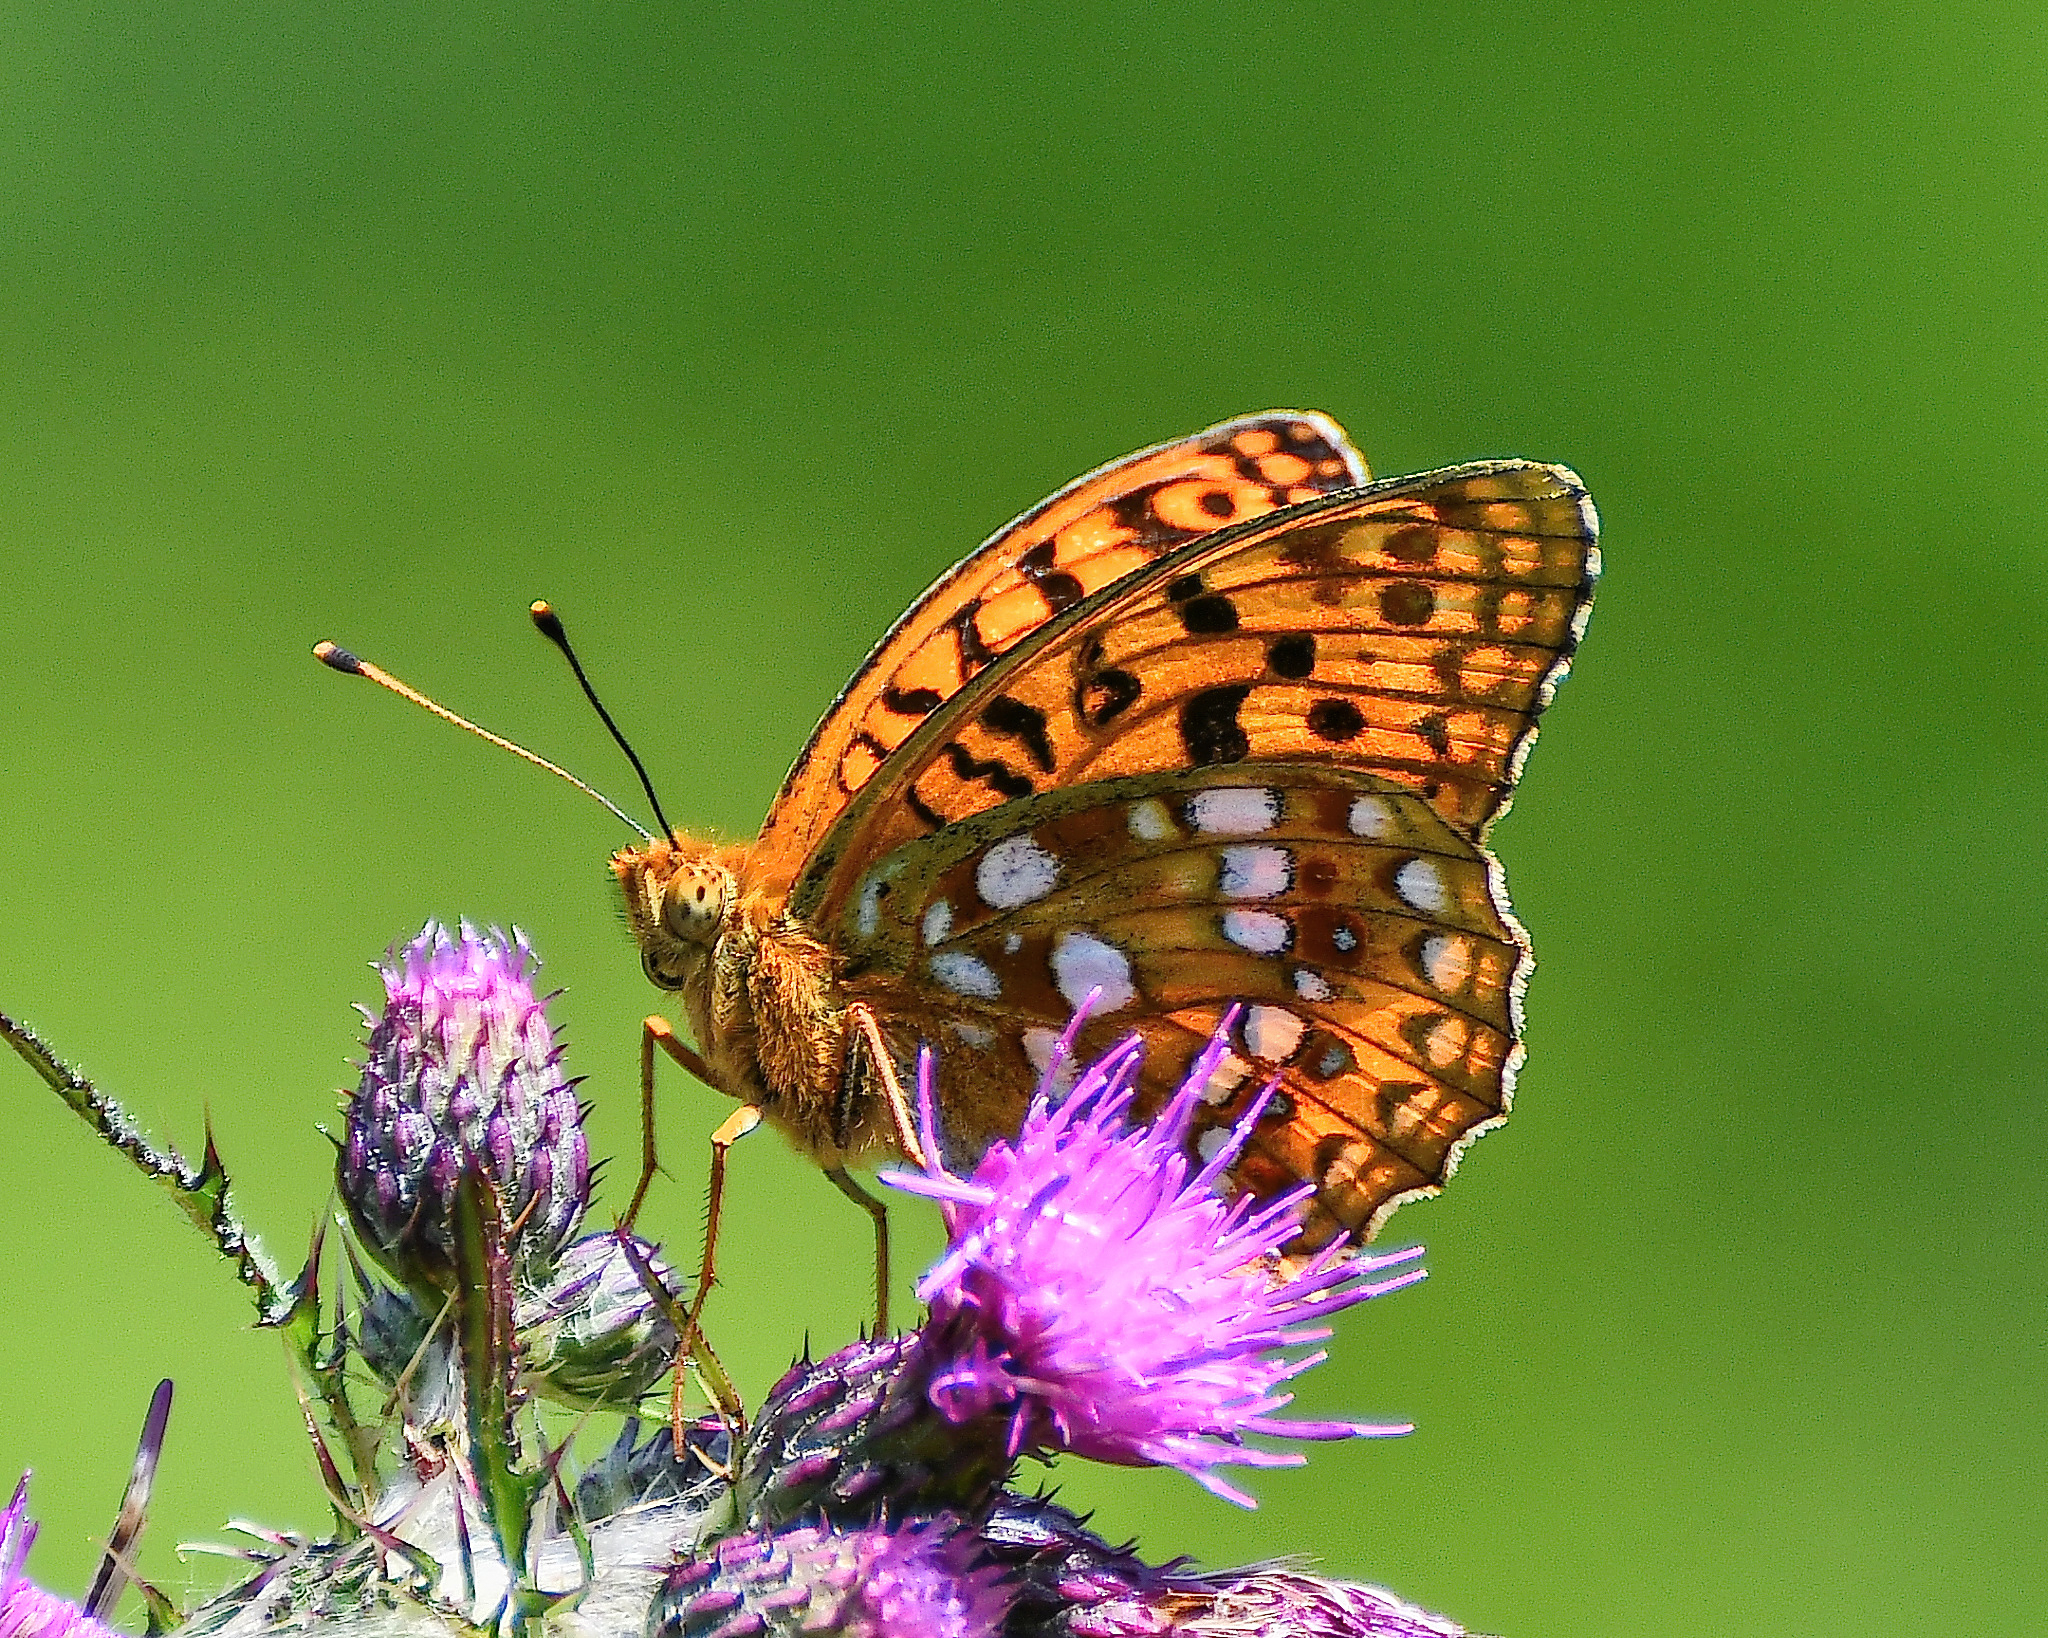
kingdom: Animalia
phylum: Arthropoda
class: Insecta
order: Lepidoptera
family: Nymphalidae
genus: Fabriciana
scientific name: Fabriciana adippe
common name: High brown fritillary
